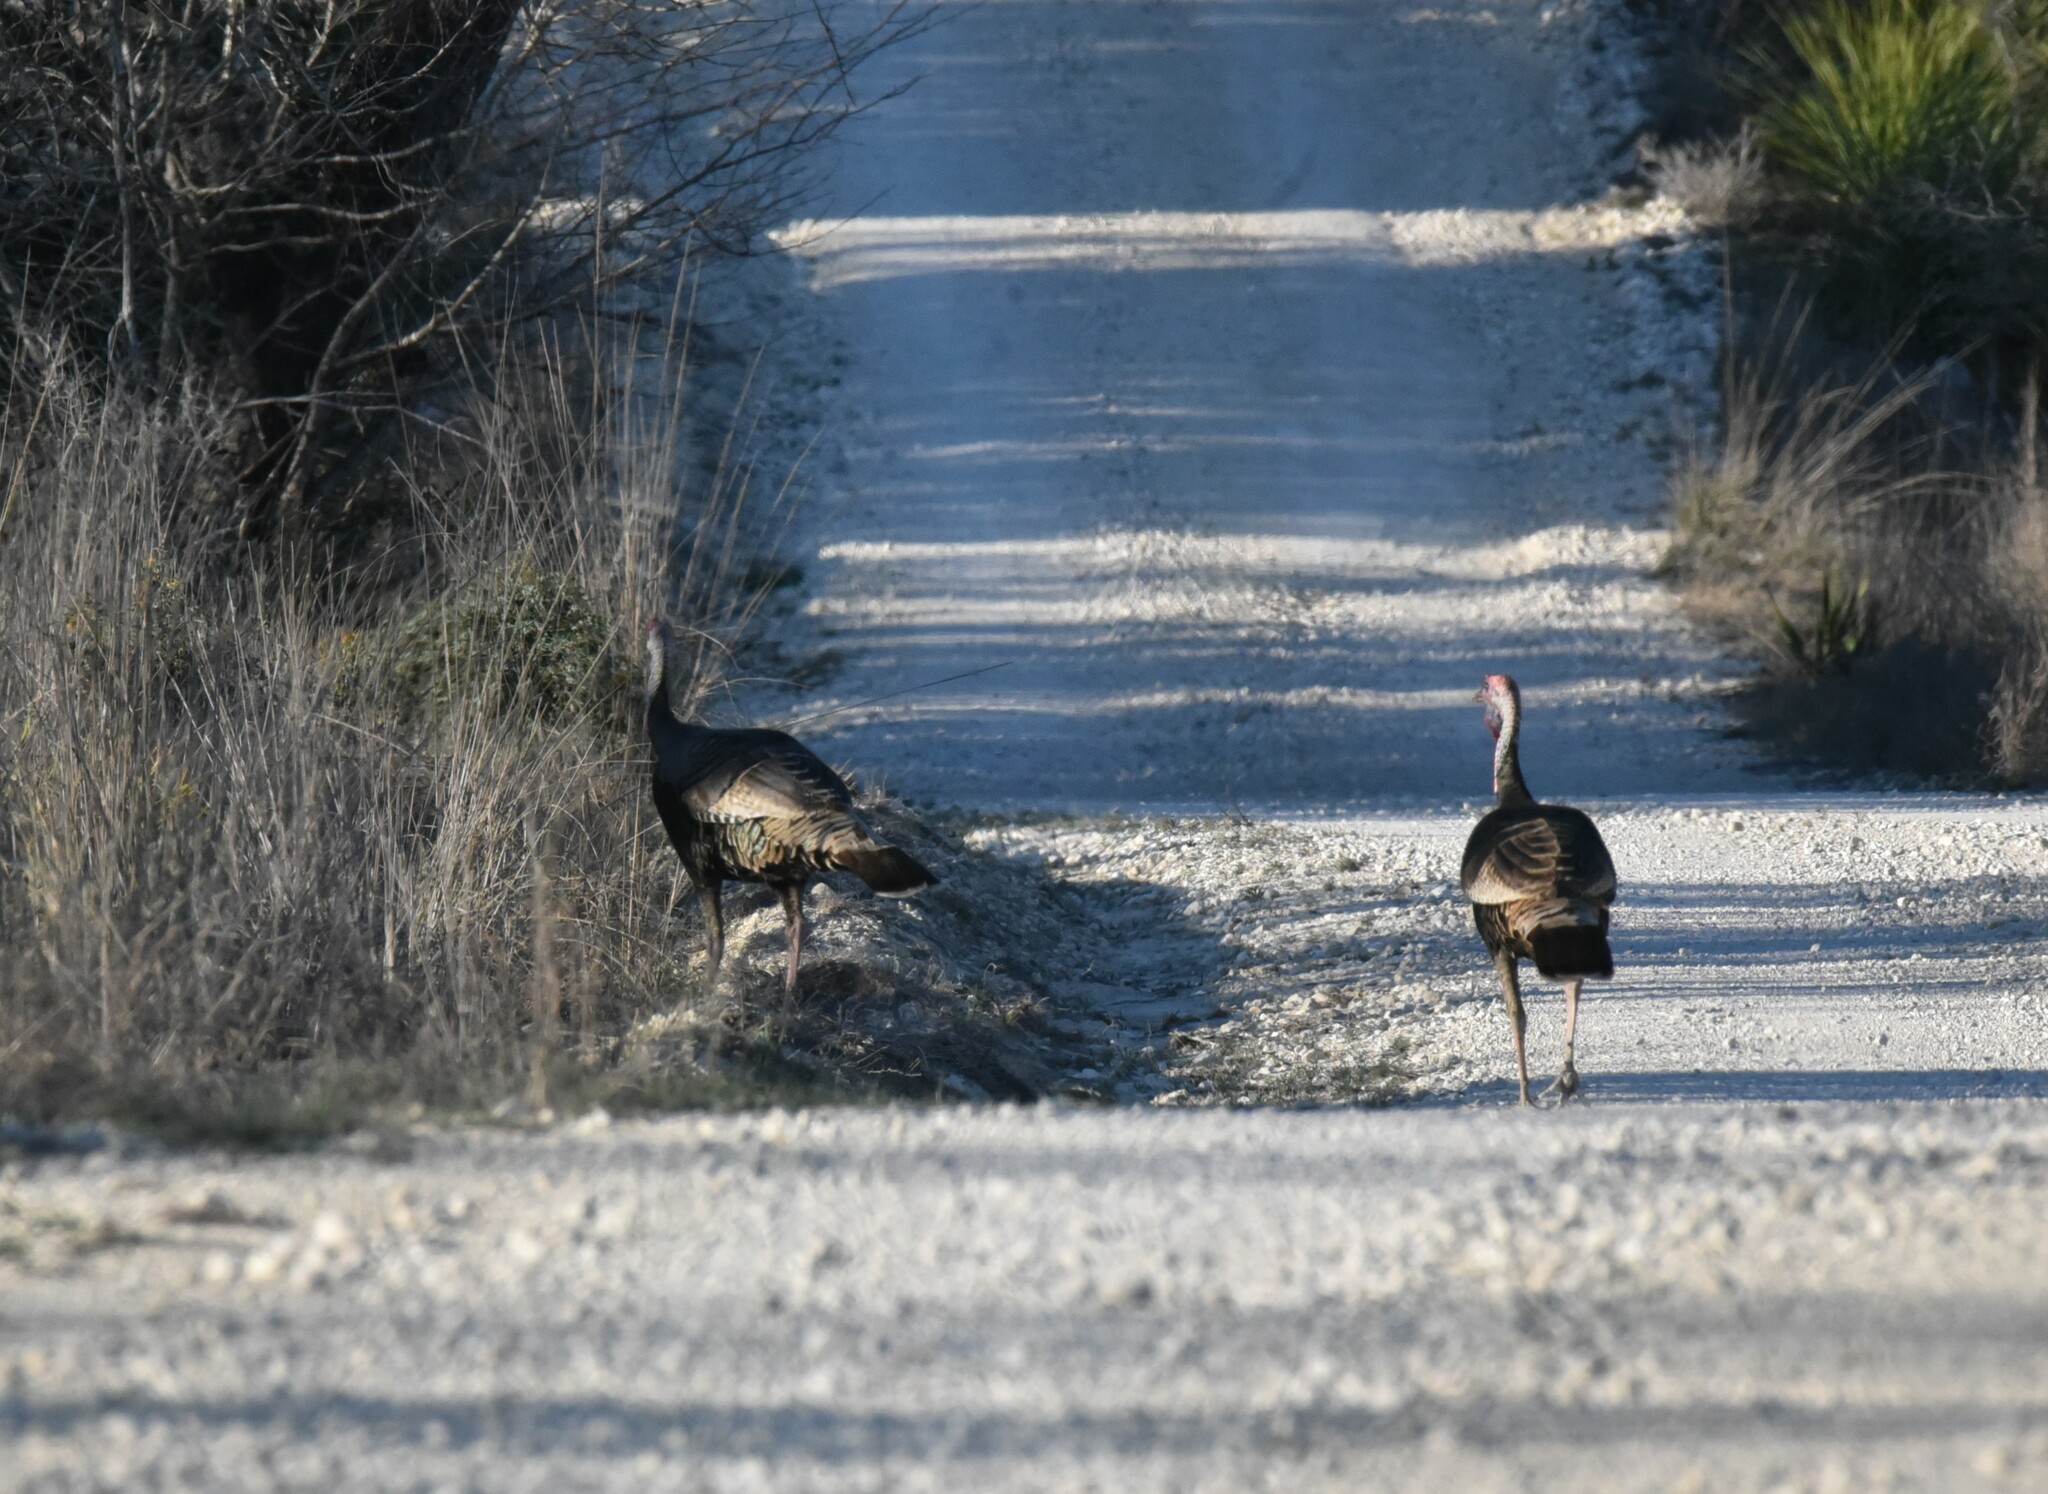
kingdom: Animalia
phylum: Chordata
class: Aves
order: Galliformes
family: Phasianidae
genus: Meleagris
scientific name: Meleagris gallopavo
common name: Wild turkey
